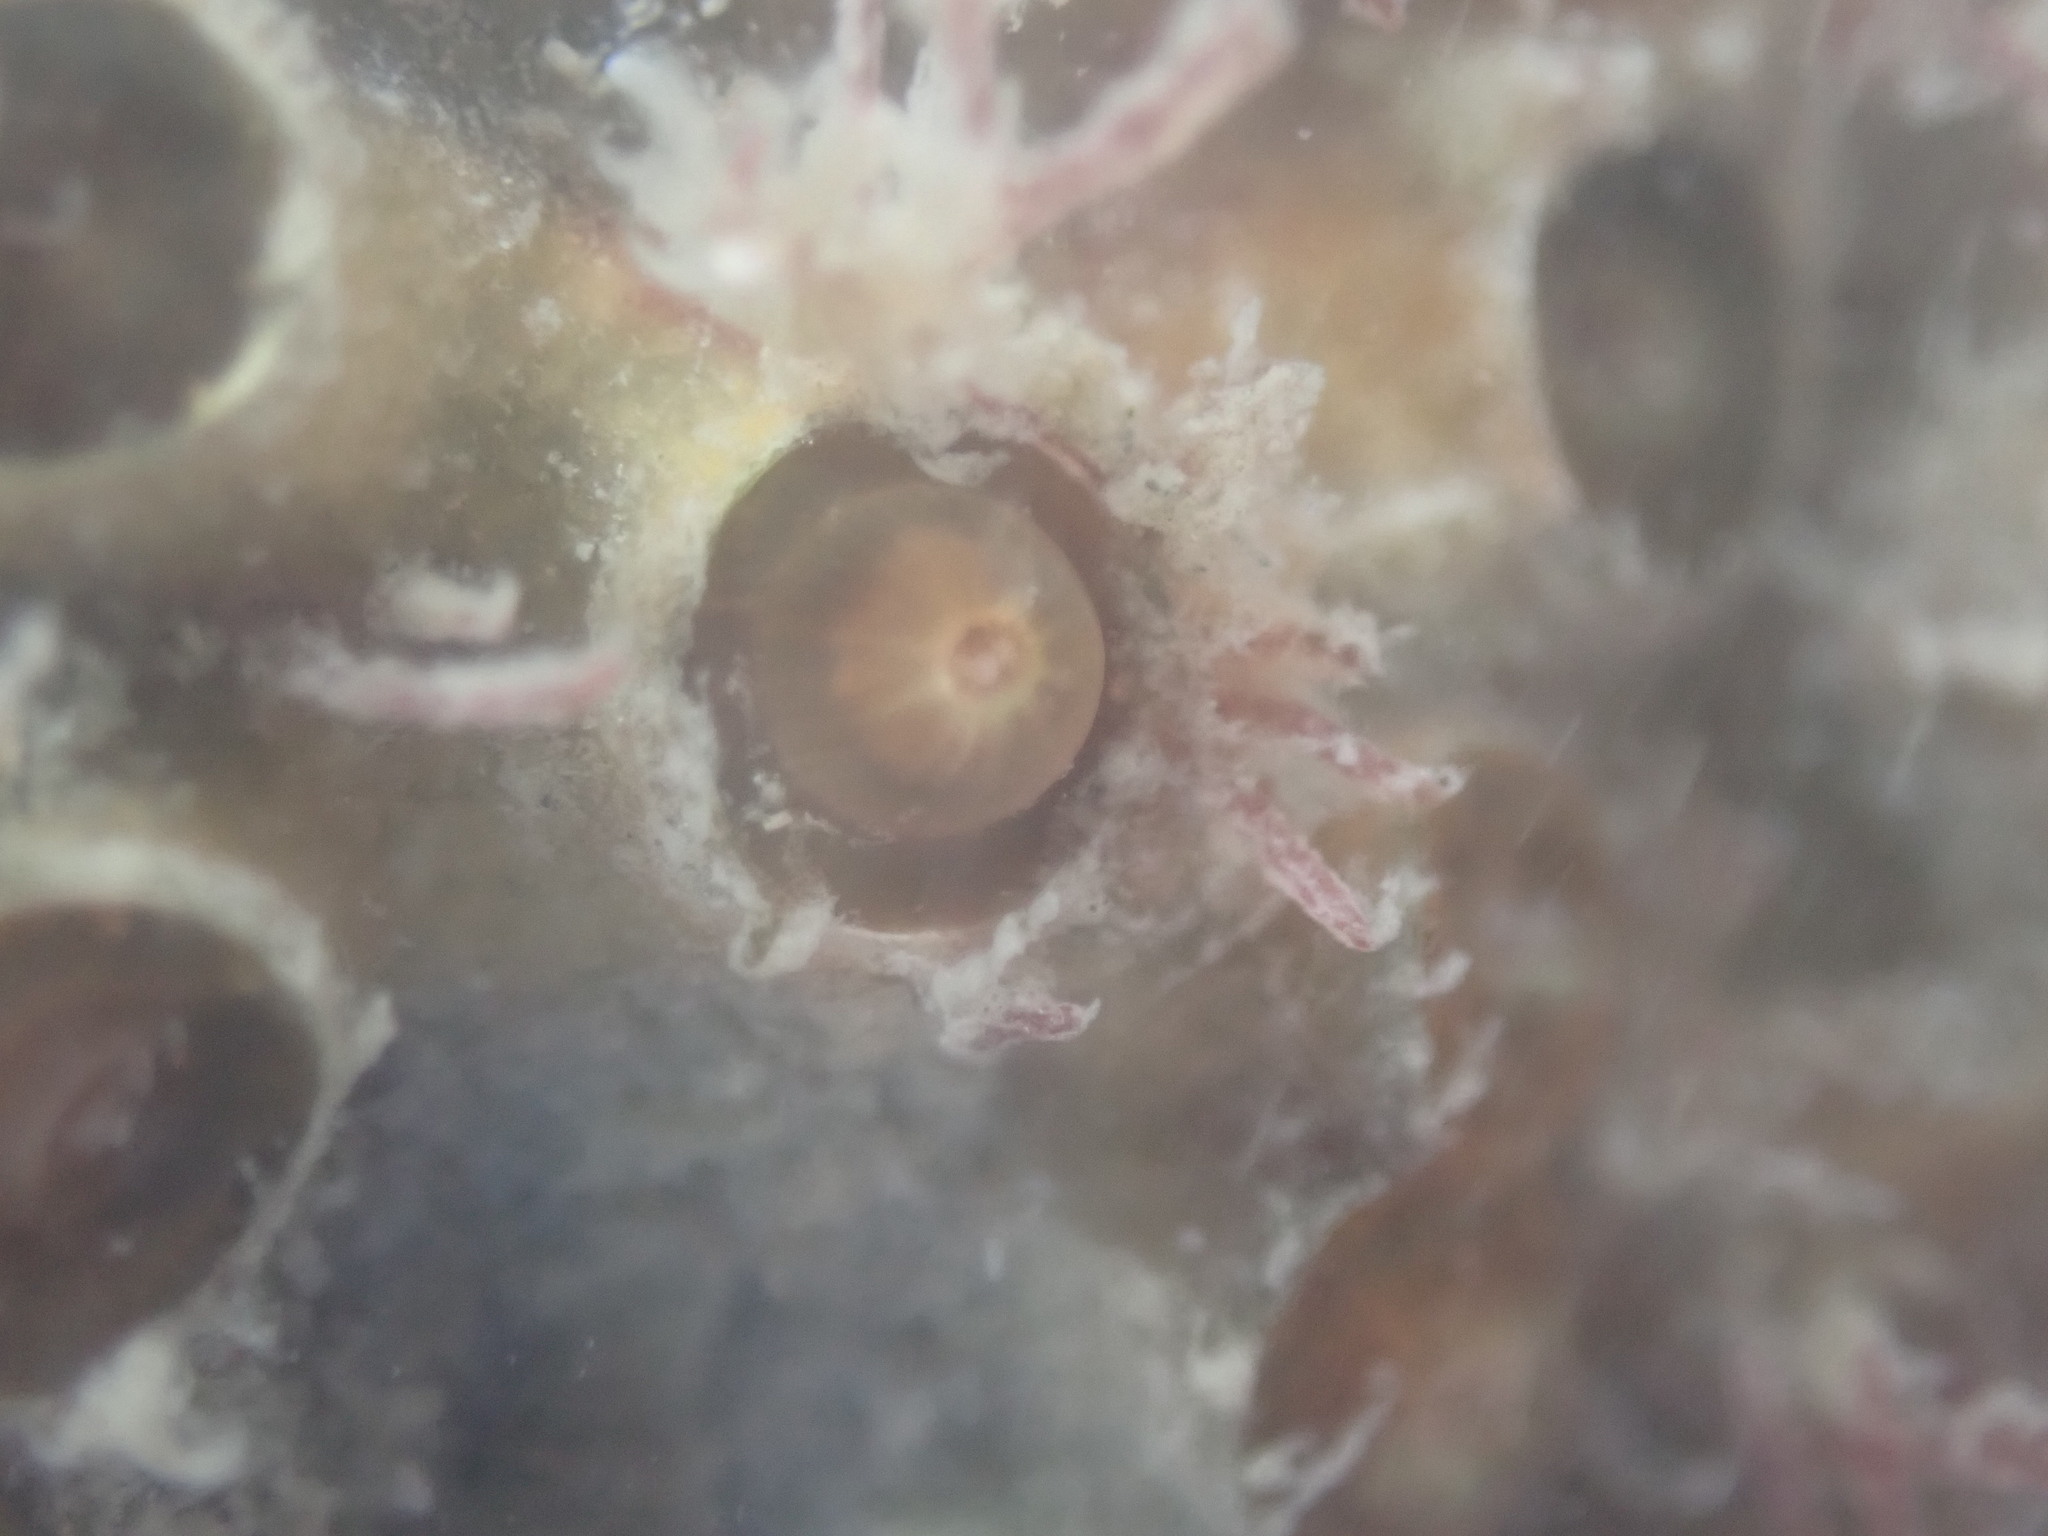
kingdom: Animalia
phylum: Cnidaria
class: Anthozoa
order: Scleractinia
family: Rhizangiidae
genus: Culicia
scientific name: Culicia rubeola
